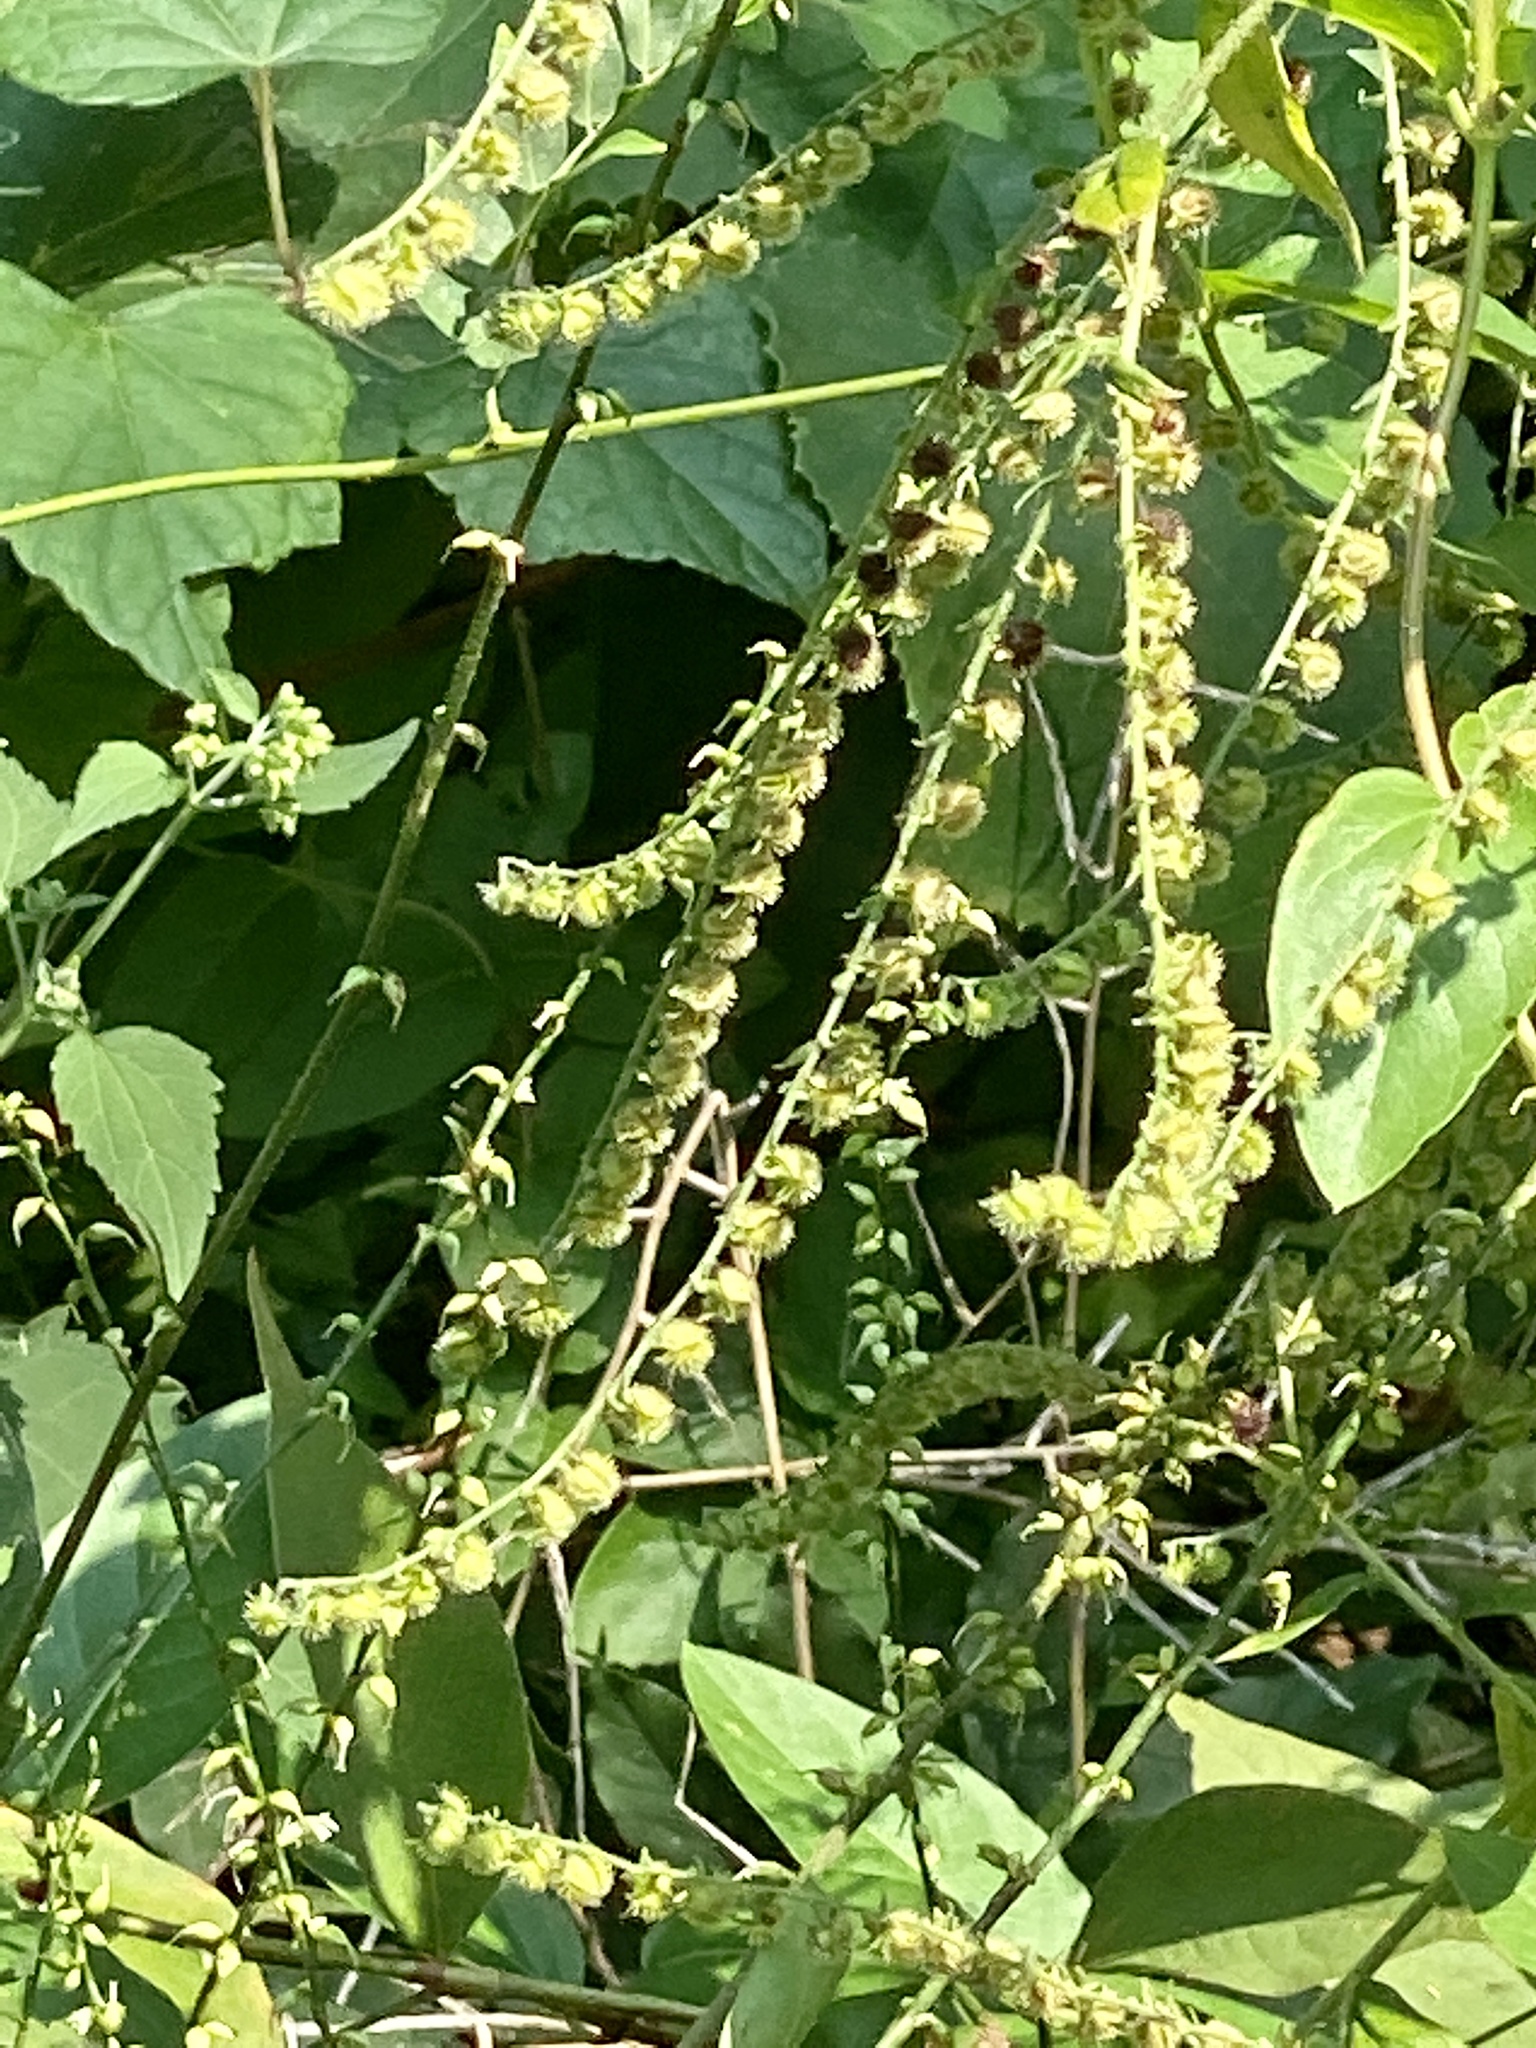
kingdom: Plantae
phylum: Tracheophyta
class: Magnoliopsida
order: Boraginales
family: Boraginaceae
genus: Hackelia
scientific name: Hackelia virginiana
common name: Beggar's-lice
